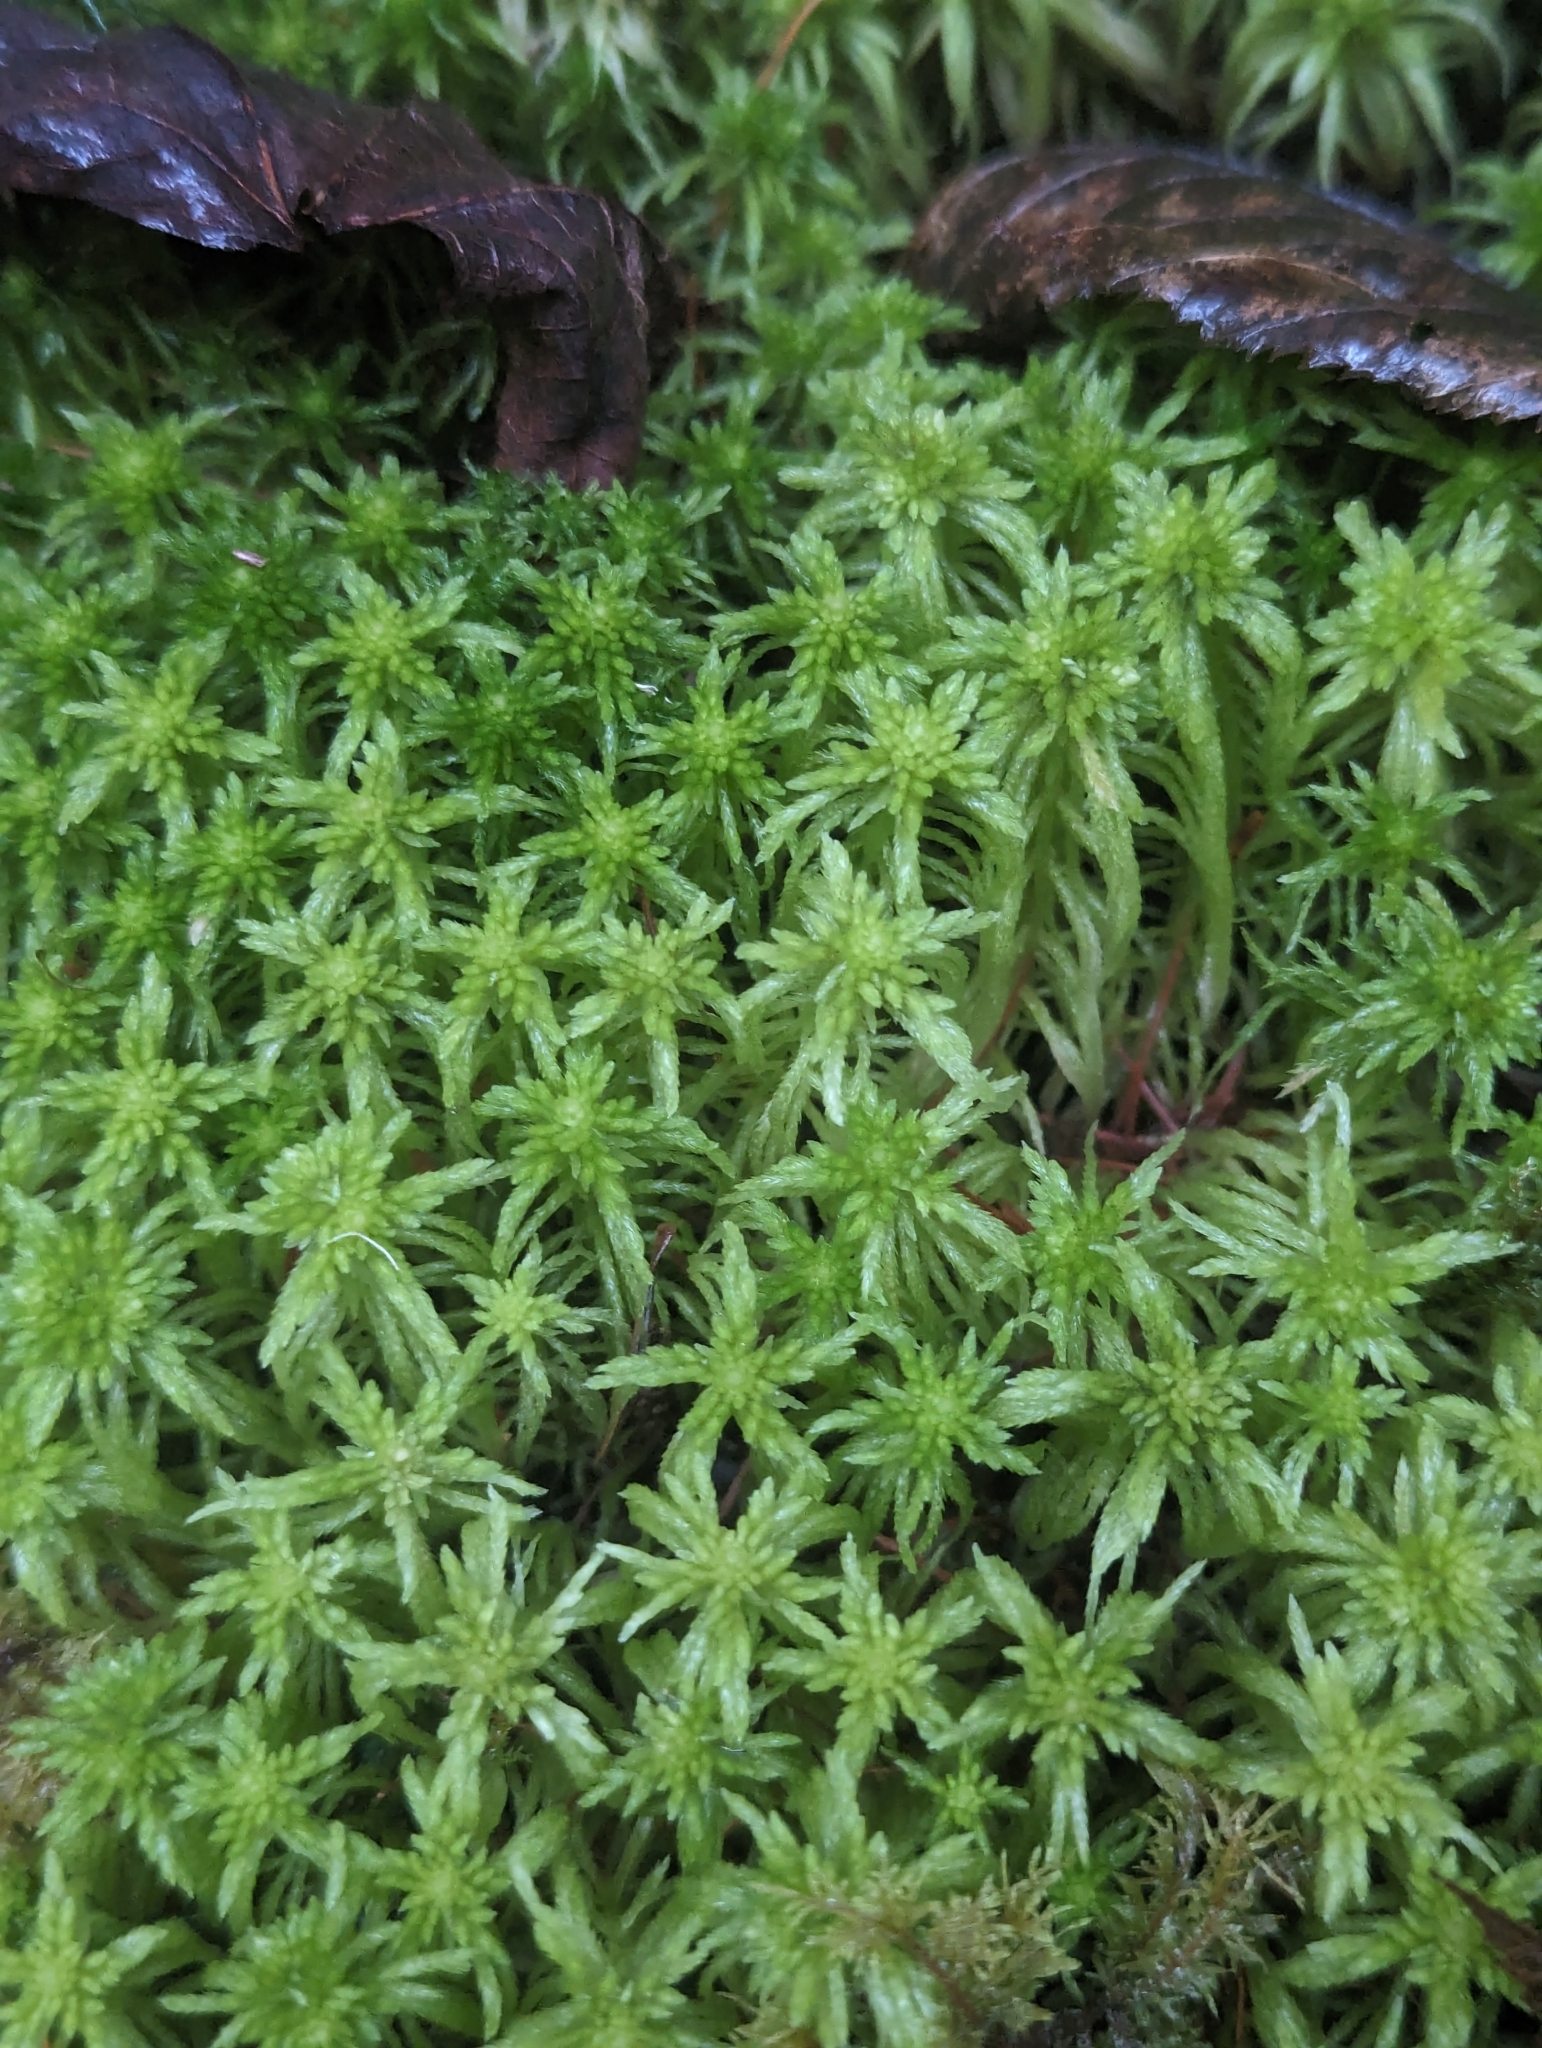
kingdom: Plantae
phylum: Bryophyta
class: Sphagnopsida
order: Sphagnales
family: Sphagnaceae
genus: Sphagnum
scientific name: Sphagnum girgensohnii
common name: Girgensohn's peat moss
